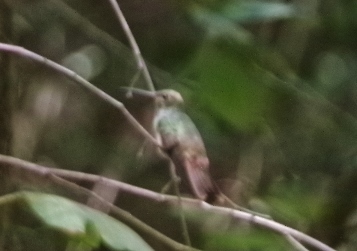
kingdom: Animalia
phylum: Chordata
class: Aves
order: Apodiformes
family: Trochilidae
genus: Amazilia
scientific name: Amazilia yucatanensis
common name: Buff-bellied hummingbird
